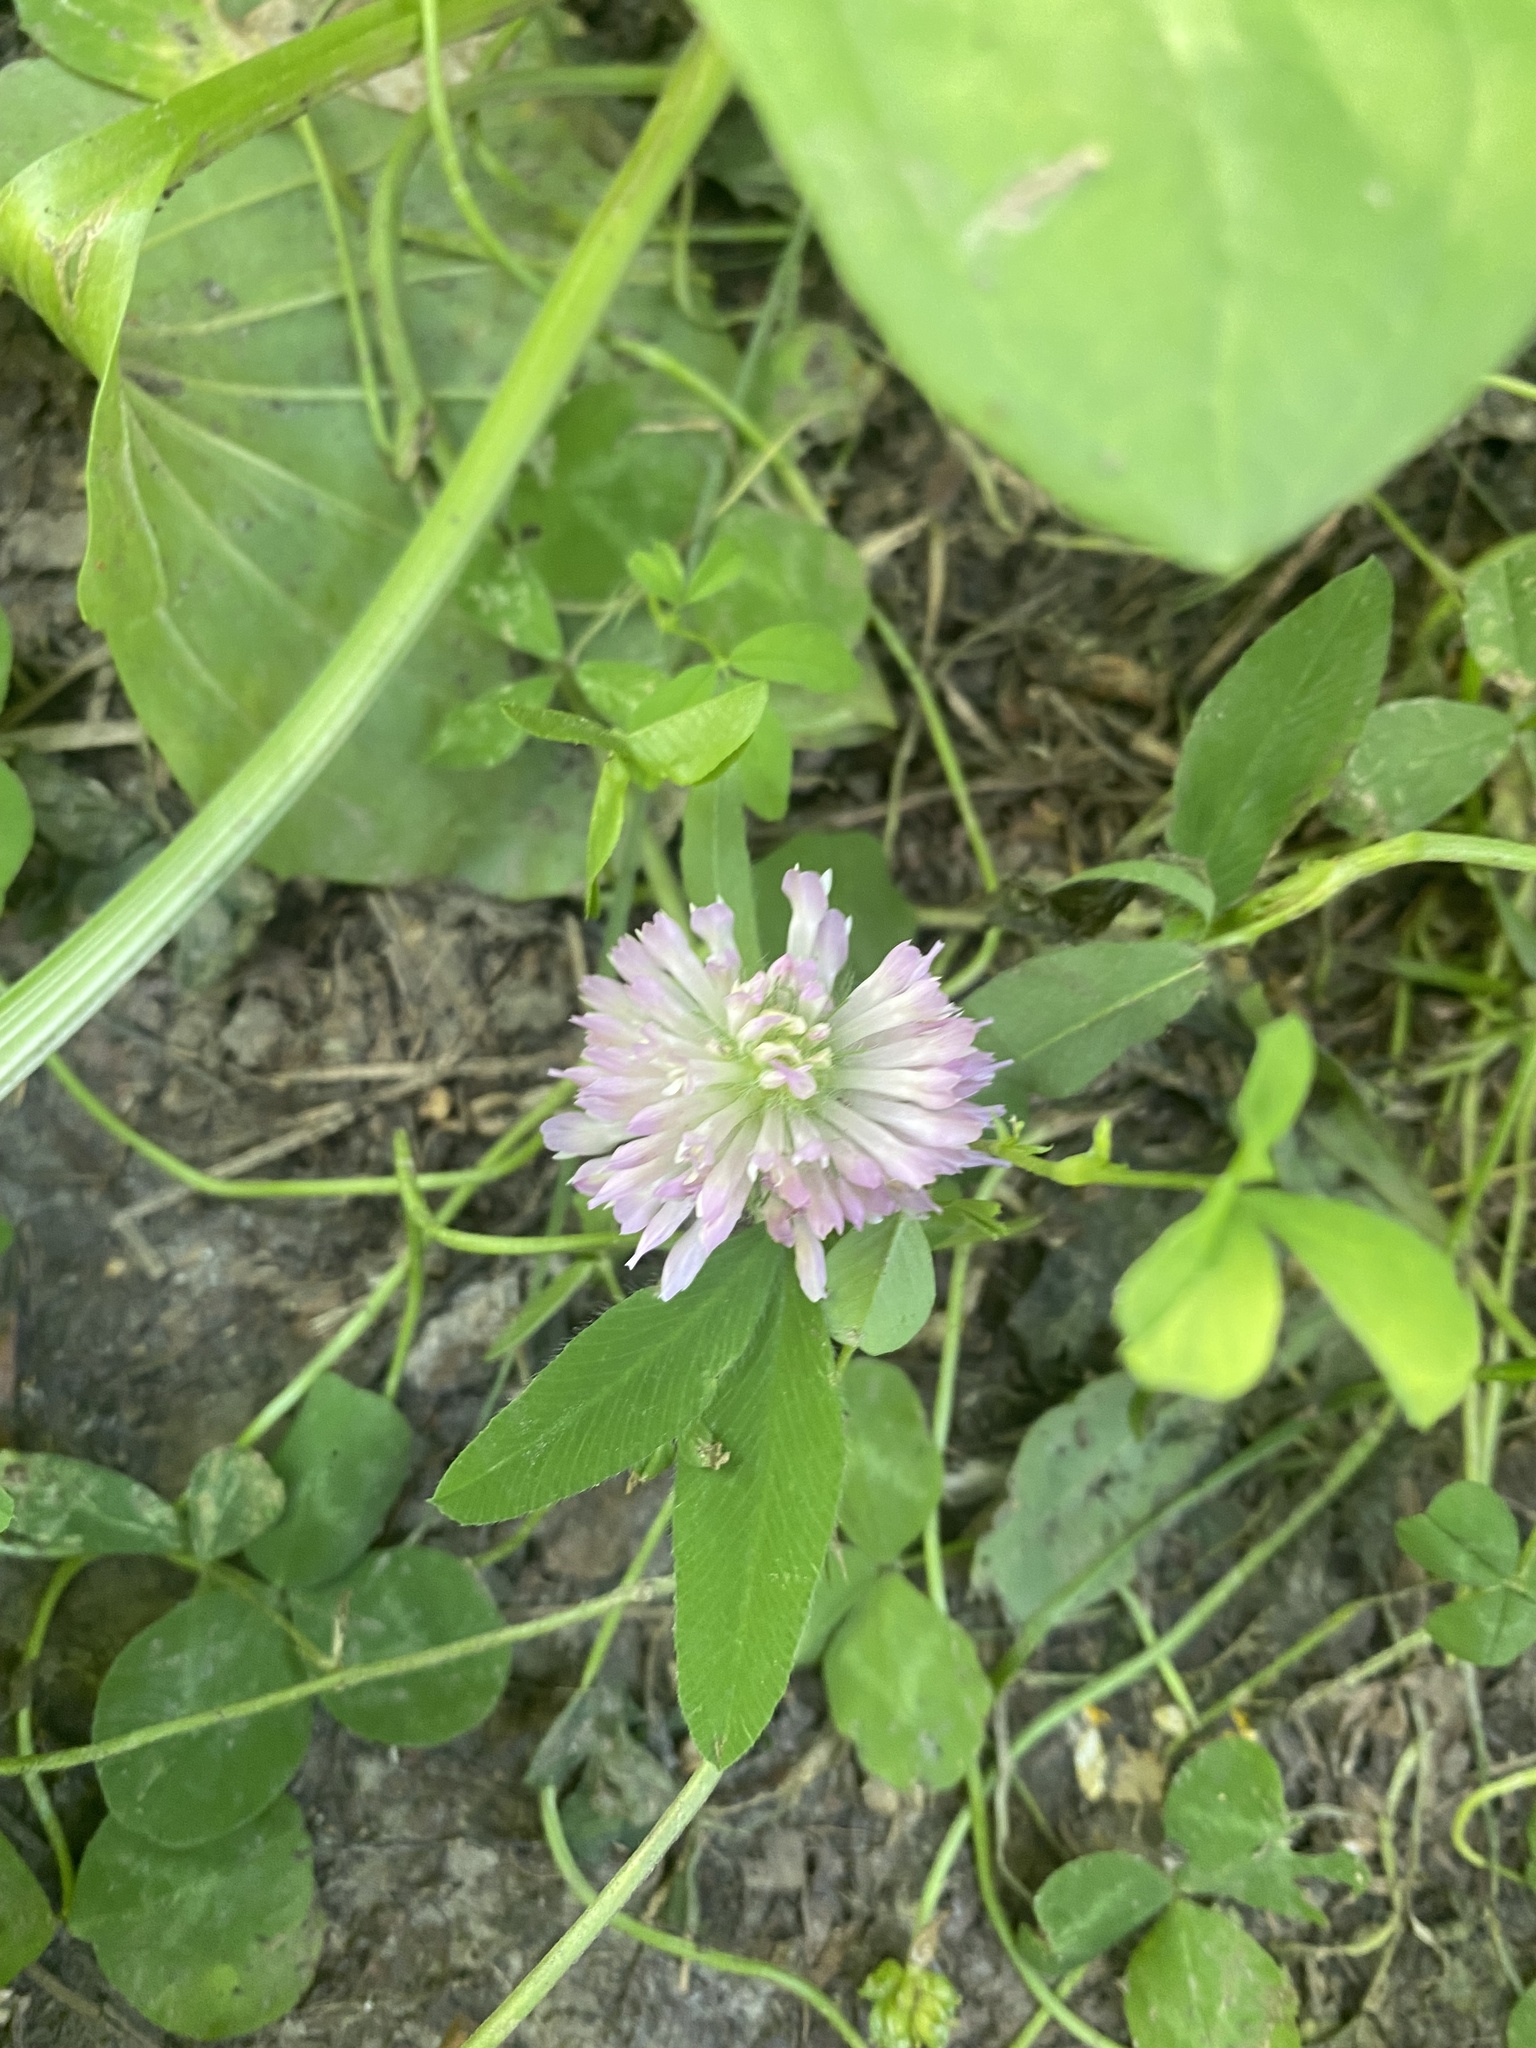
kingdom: Plantae
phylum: Tracheophyta
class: Magnoliopsida
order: Fabales
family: Fabaceae
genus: Trifolium
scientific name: Trifolium pratense
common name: Red clover
